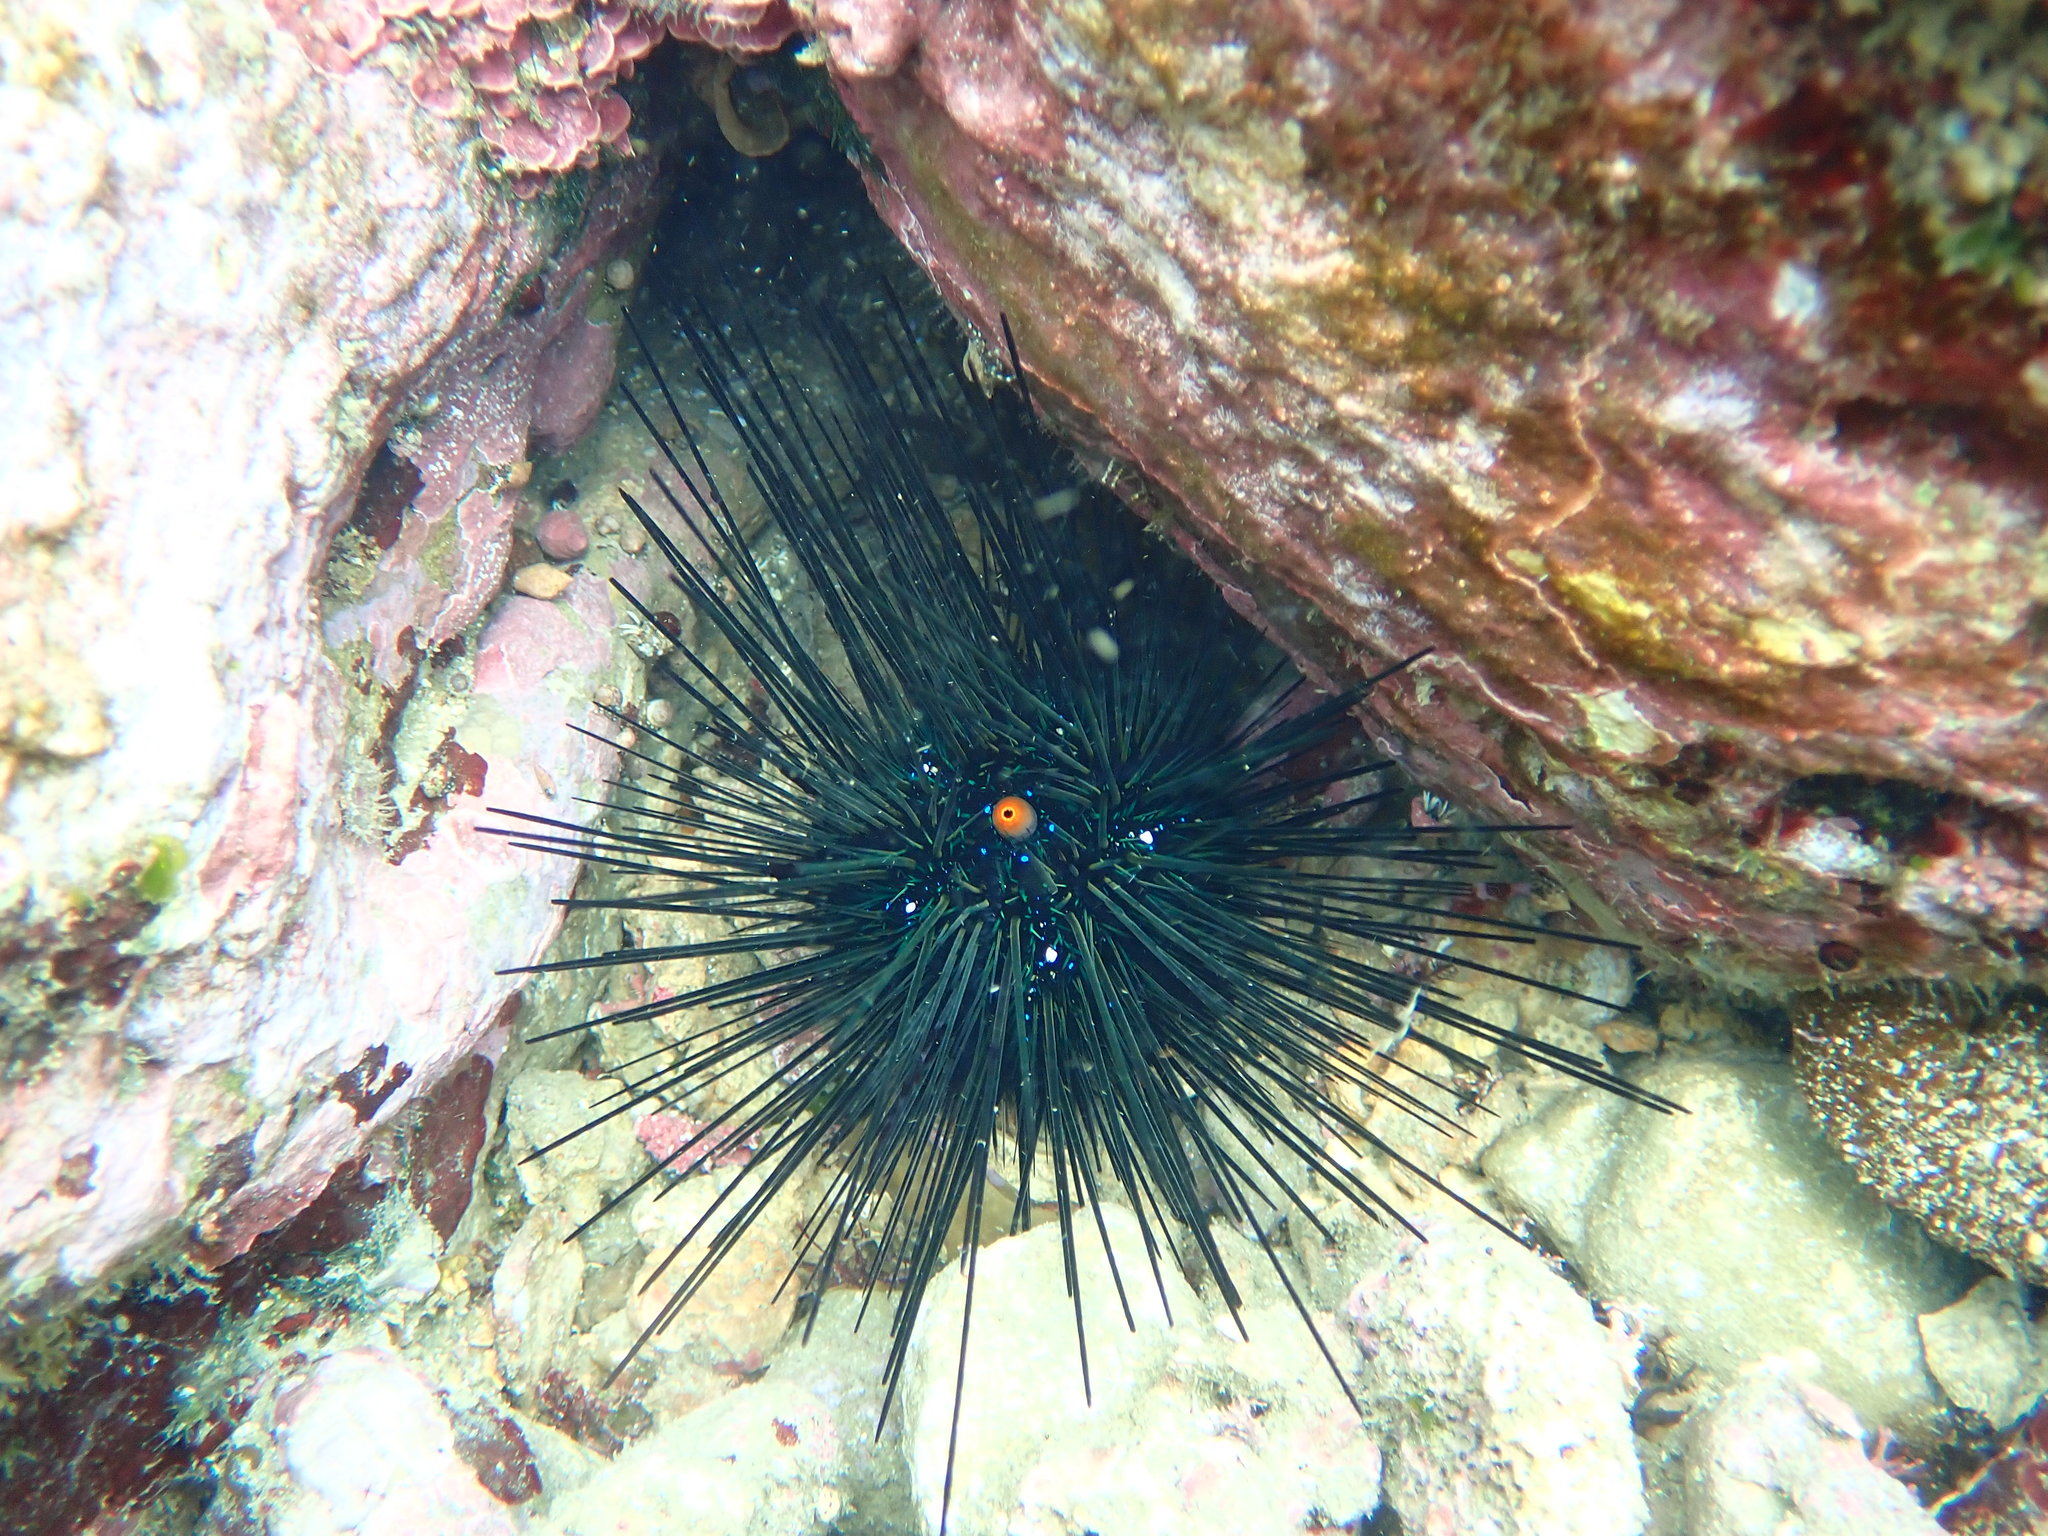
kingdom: Animalia
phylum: Echinodermata
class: Echinoidea
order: Diadematoida
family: Diadematidae
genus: Diadema
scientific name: Diadema setosum
